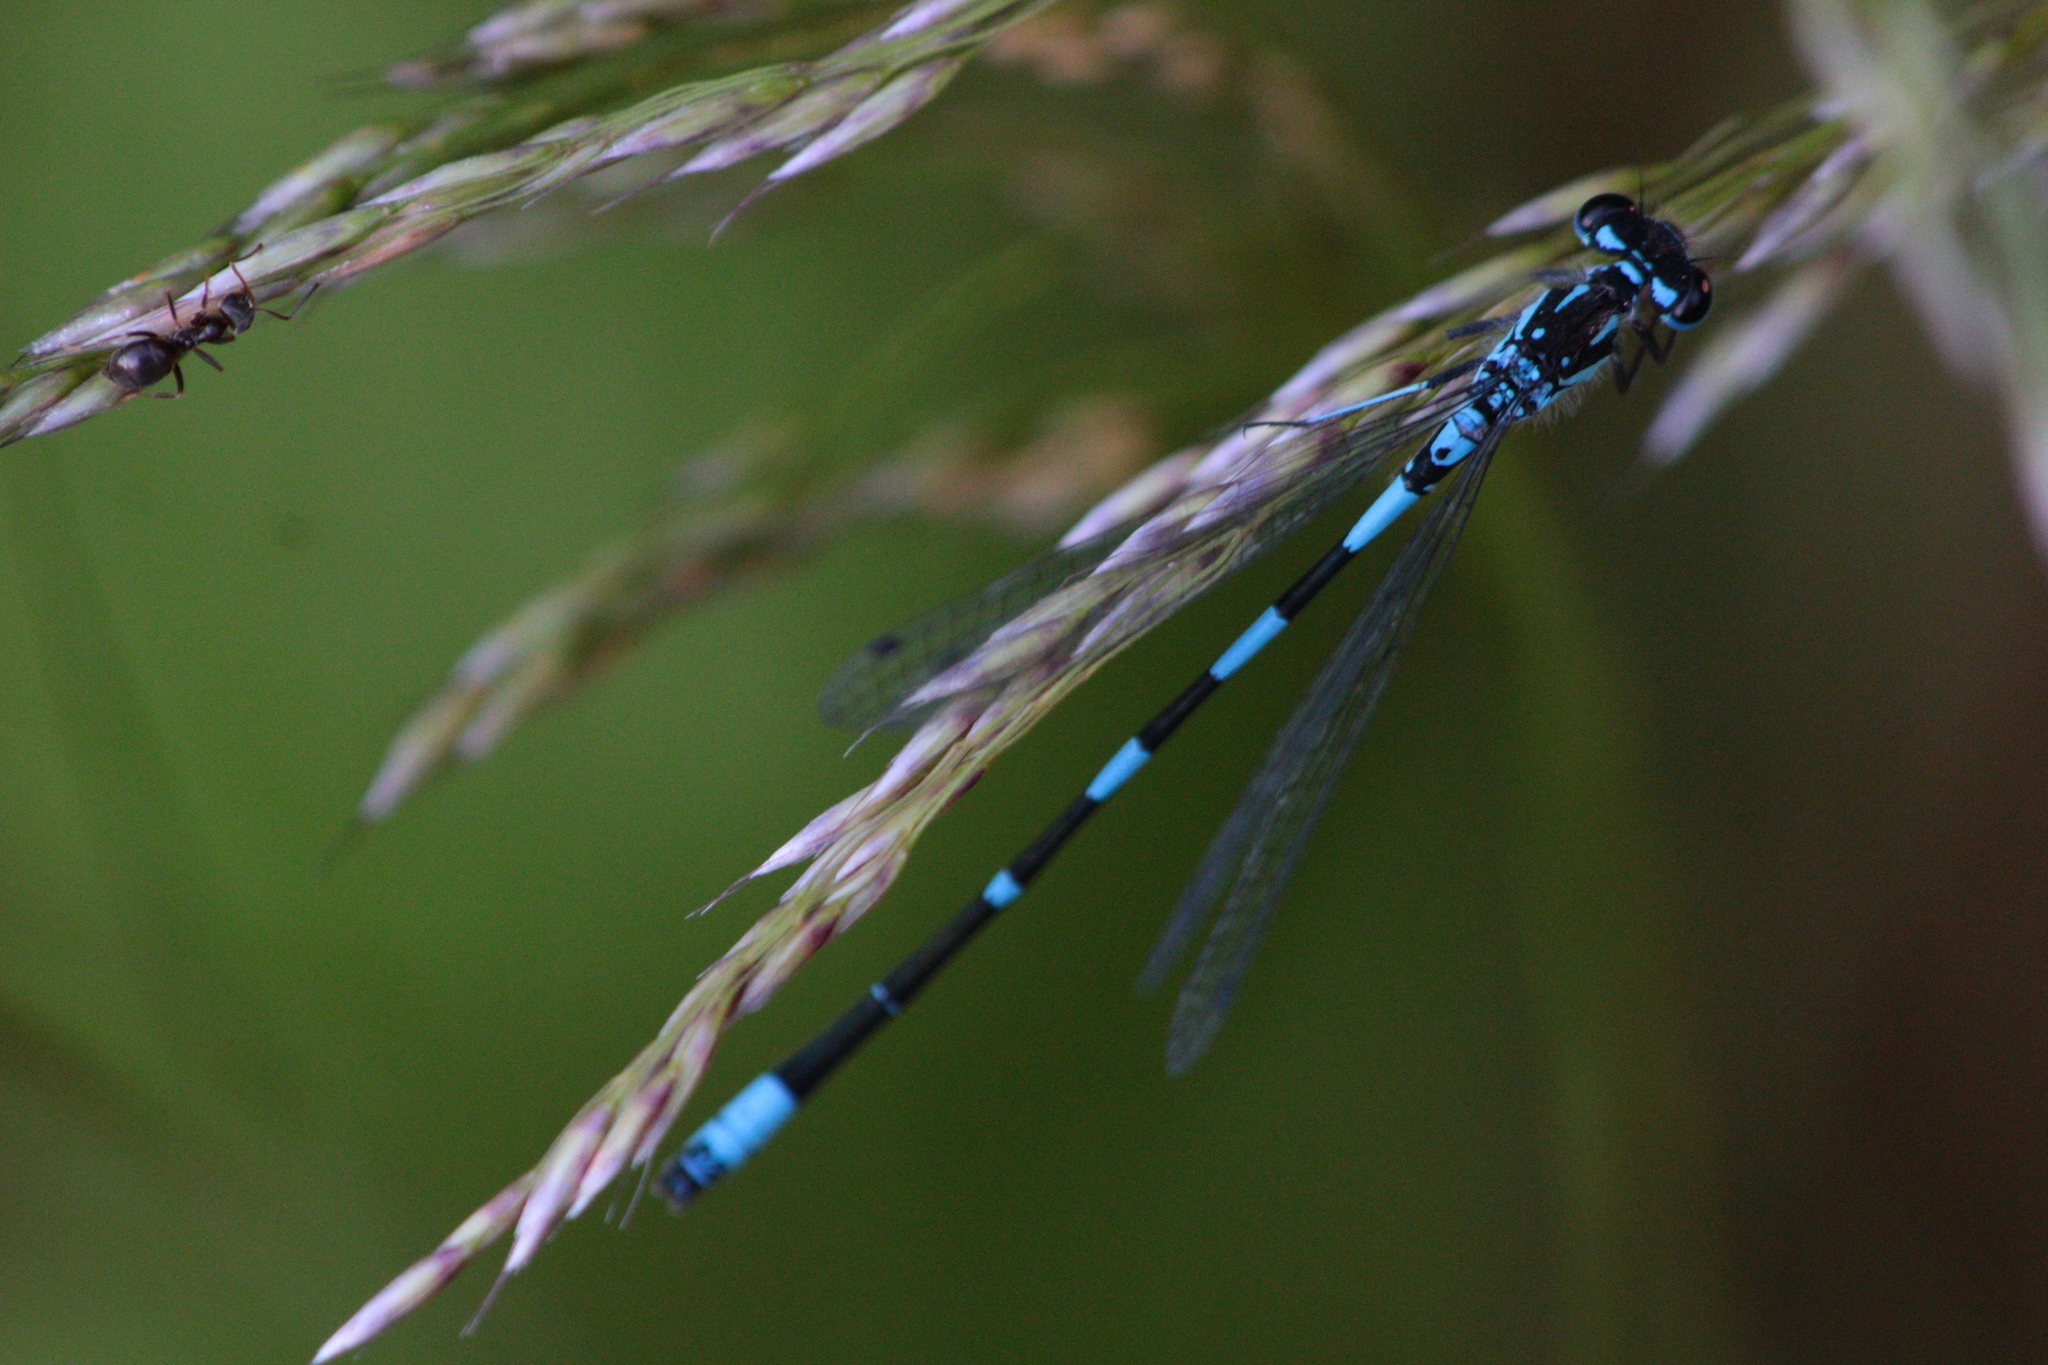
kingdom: Animalia
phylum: Arthropoda
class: Insecta
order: Odonata
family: Coenagrionidae
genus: Coenagrion
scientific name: Coenagrion pulchellum
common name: Variable bluet
